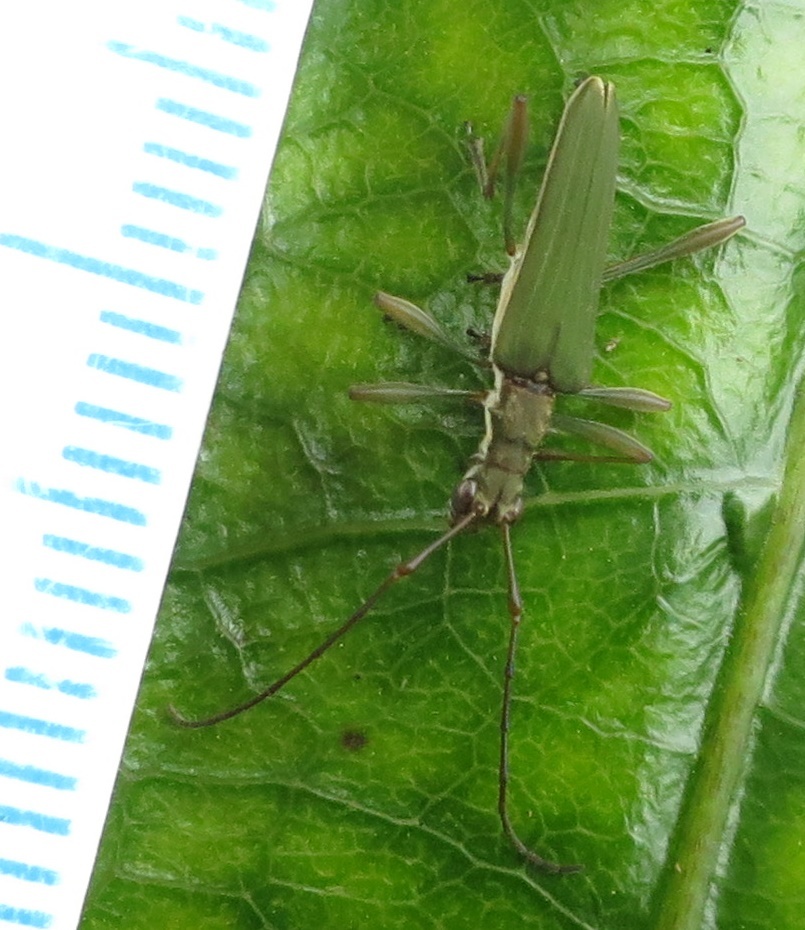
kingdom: Animalia
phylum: Arthropoda
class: Insecta
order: Coleoptera
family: Cerambycidae
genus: Calliprason
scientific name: Calliprason sinclairi
